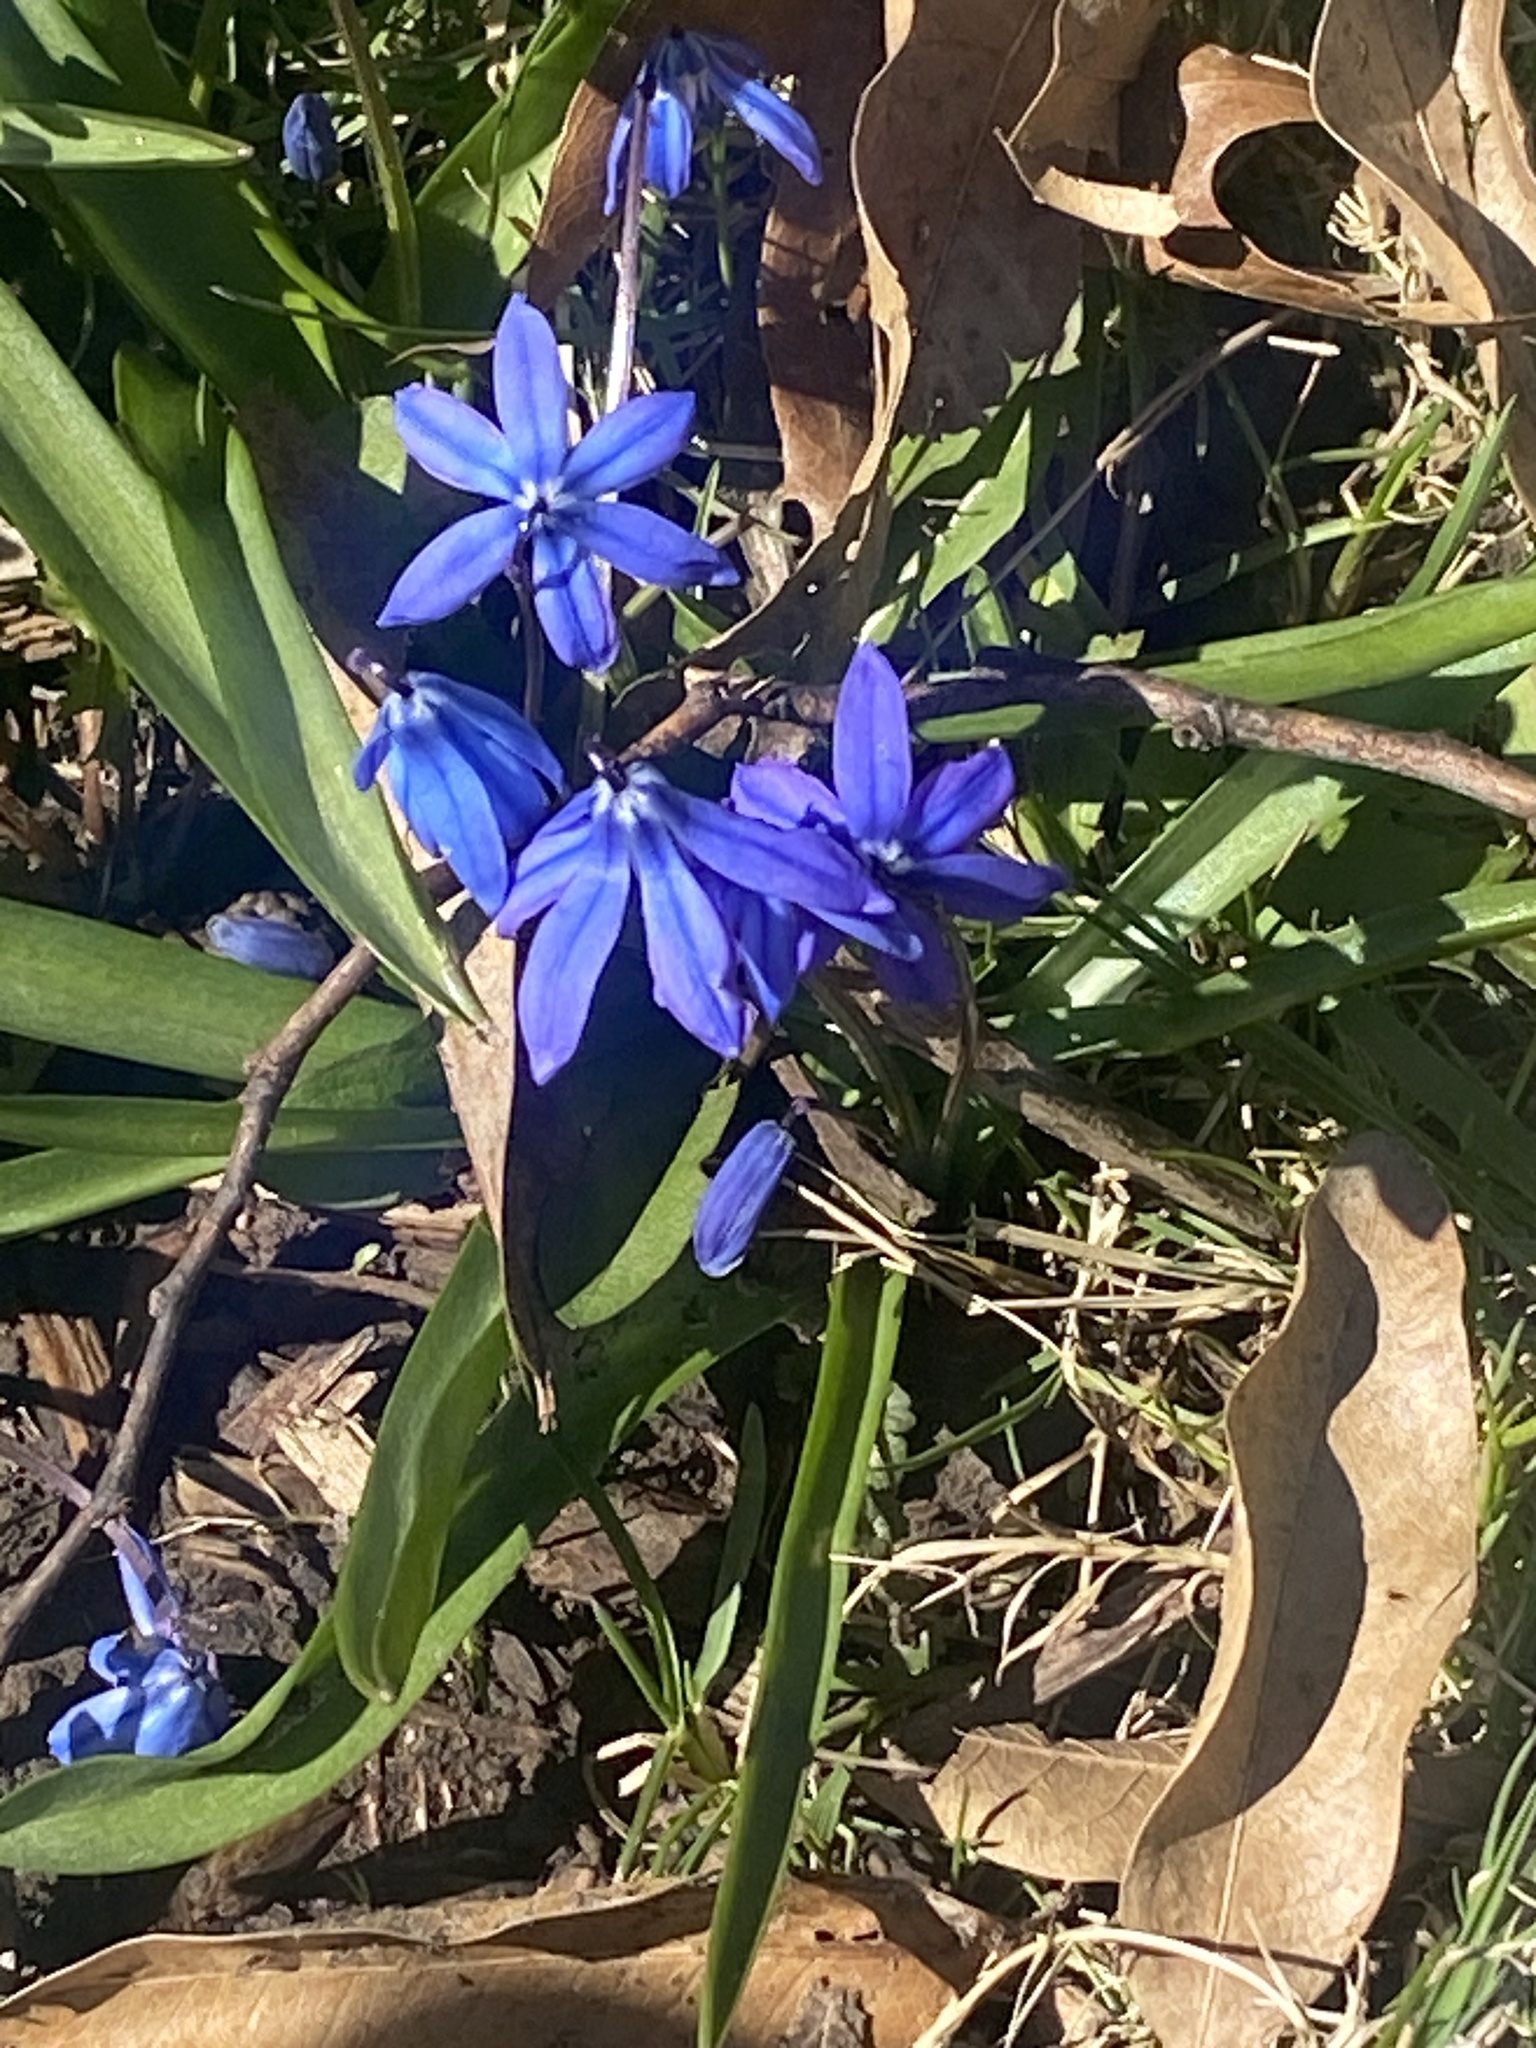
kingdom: Plantae
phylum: Tracheophyta
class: Liliopsida
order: Asparagales
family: Asparagaceae
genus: Scilla
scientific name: Scilla siberica
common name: Siberian squill
